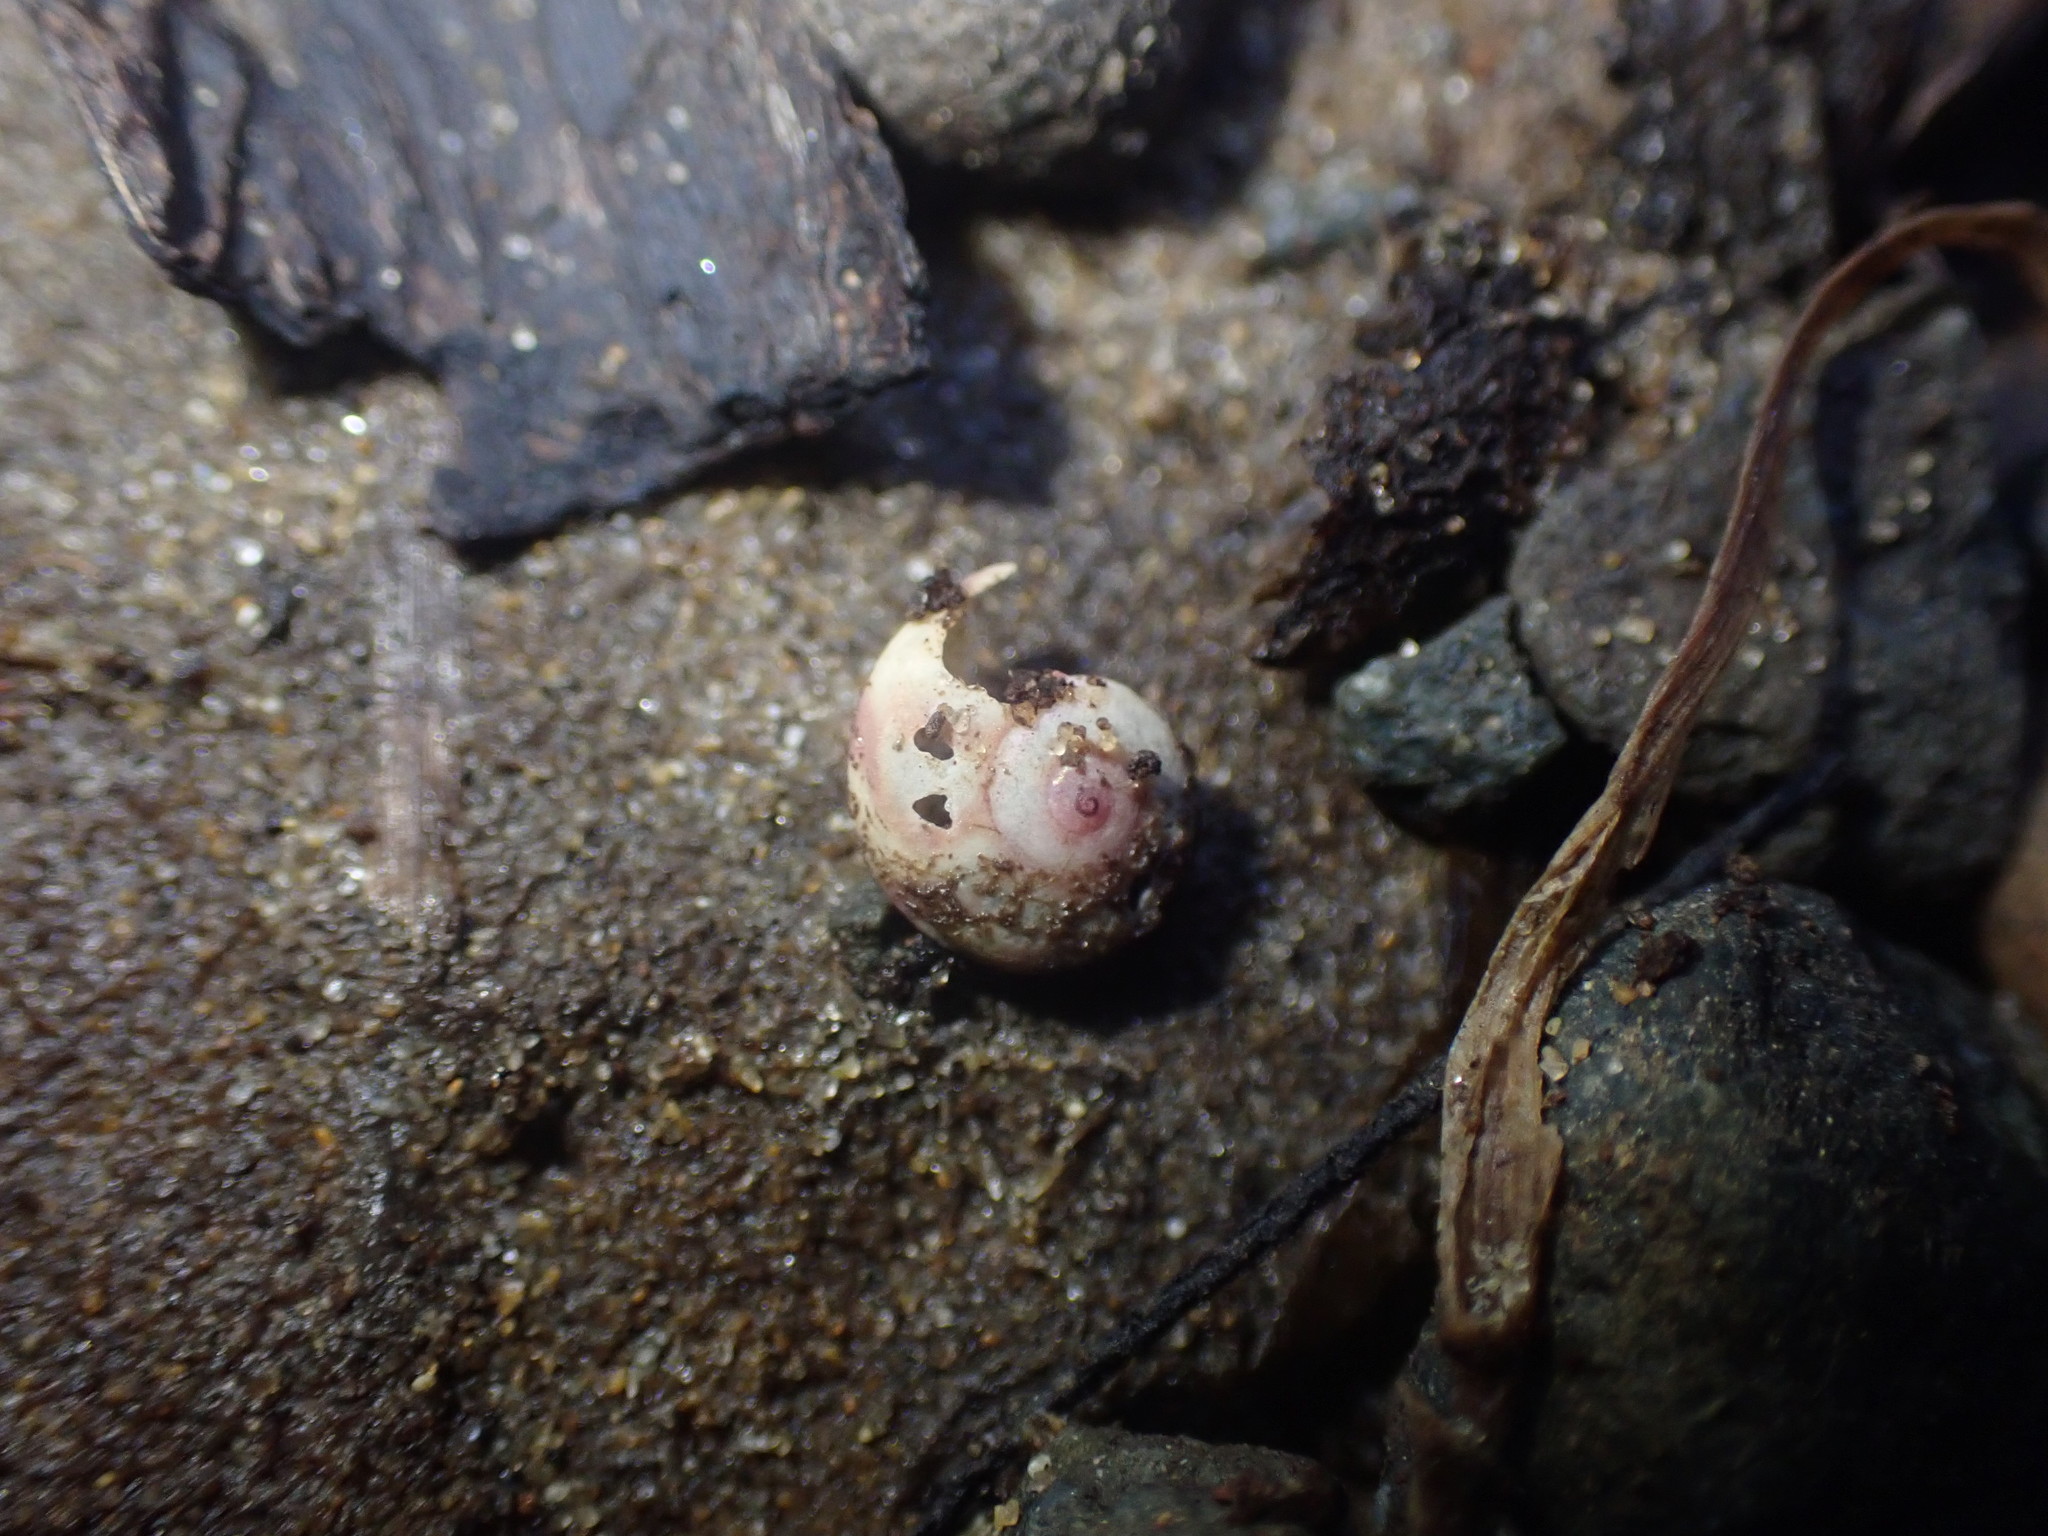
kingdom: Animalia
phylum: Mollusca
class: Gastropoda
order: Trochida
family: Trochidae
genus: Zethalia
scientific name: Zethalia zelandica
